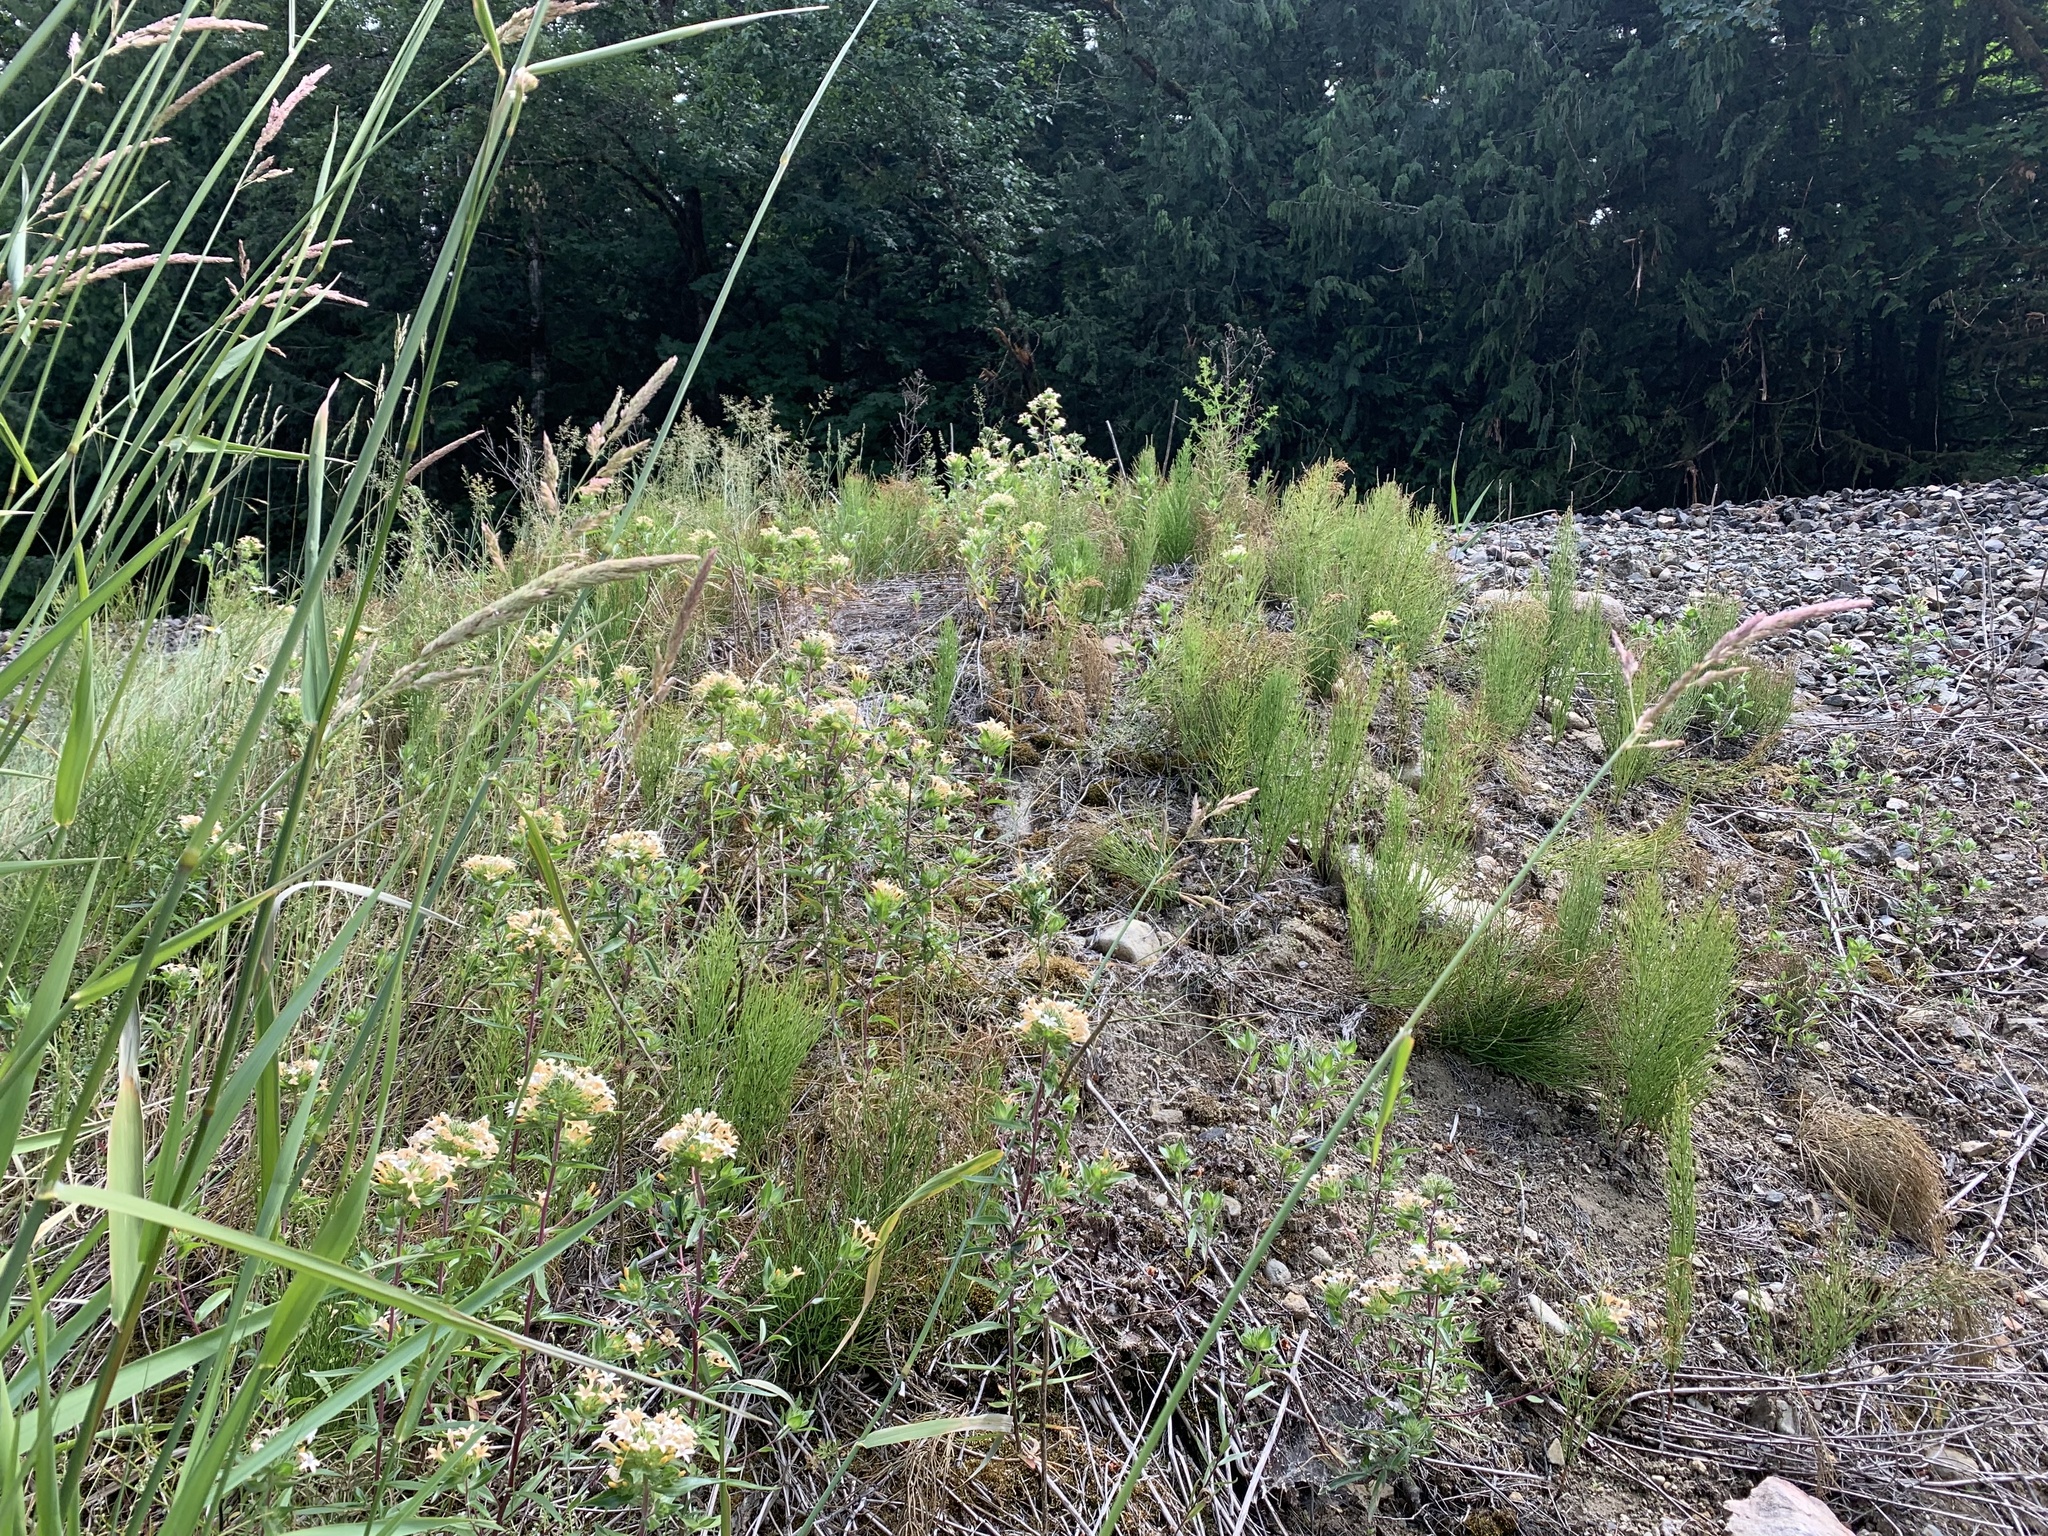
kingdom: Plantae
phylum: Tracheophyta
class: Magnoliopsida
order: Ericales
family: Polemoniaceae
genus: Collomia
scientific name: Collomia grandiflora
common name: California strawflower
